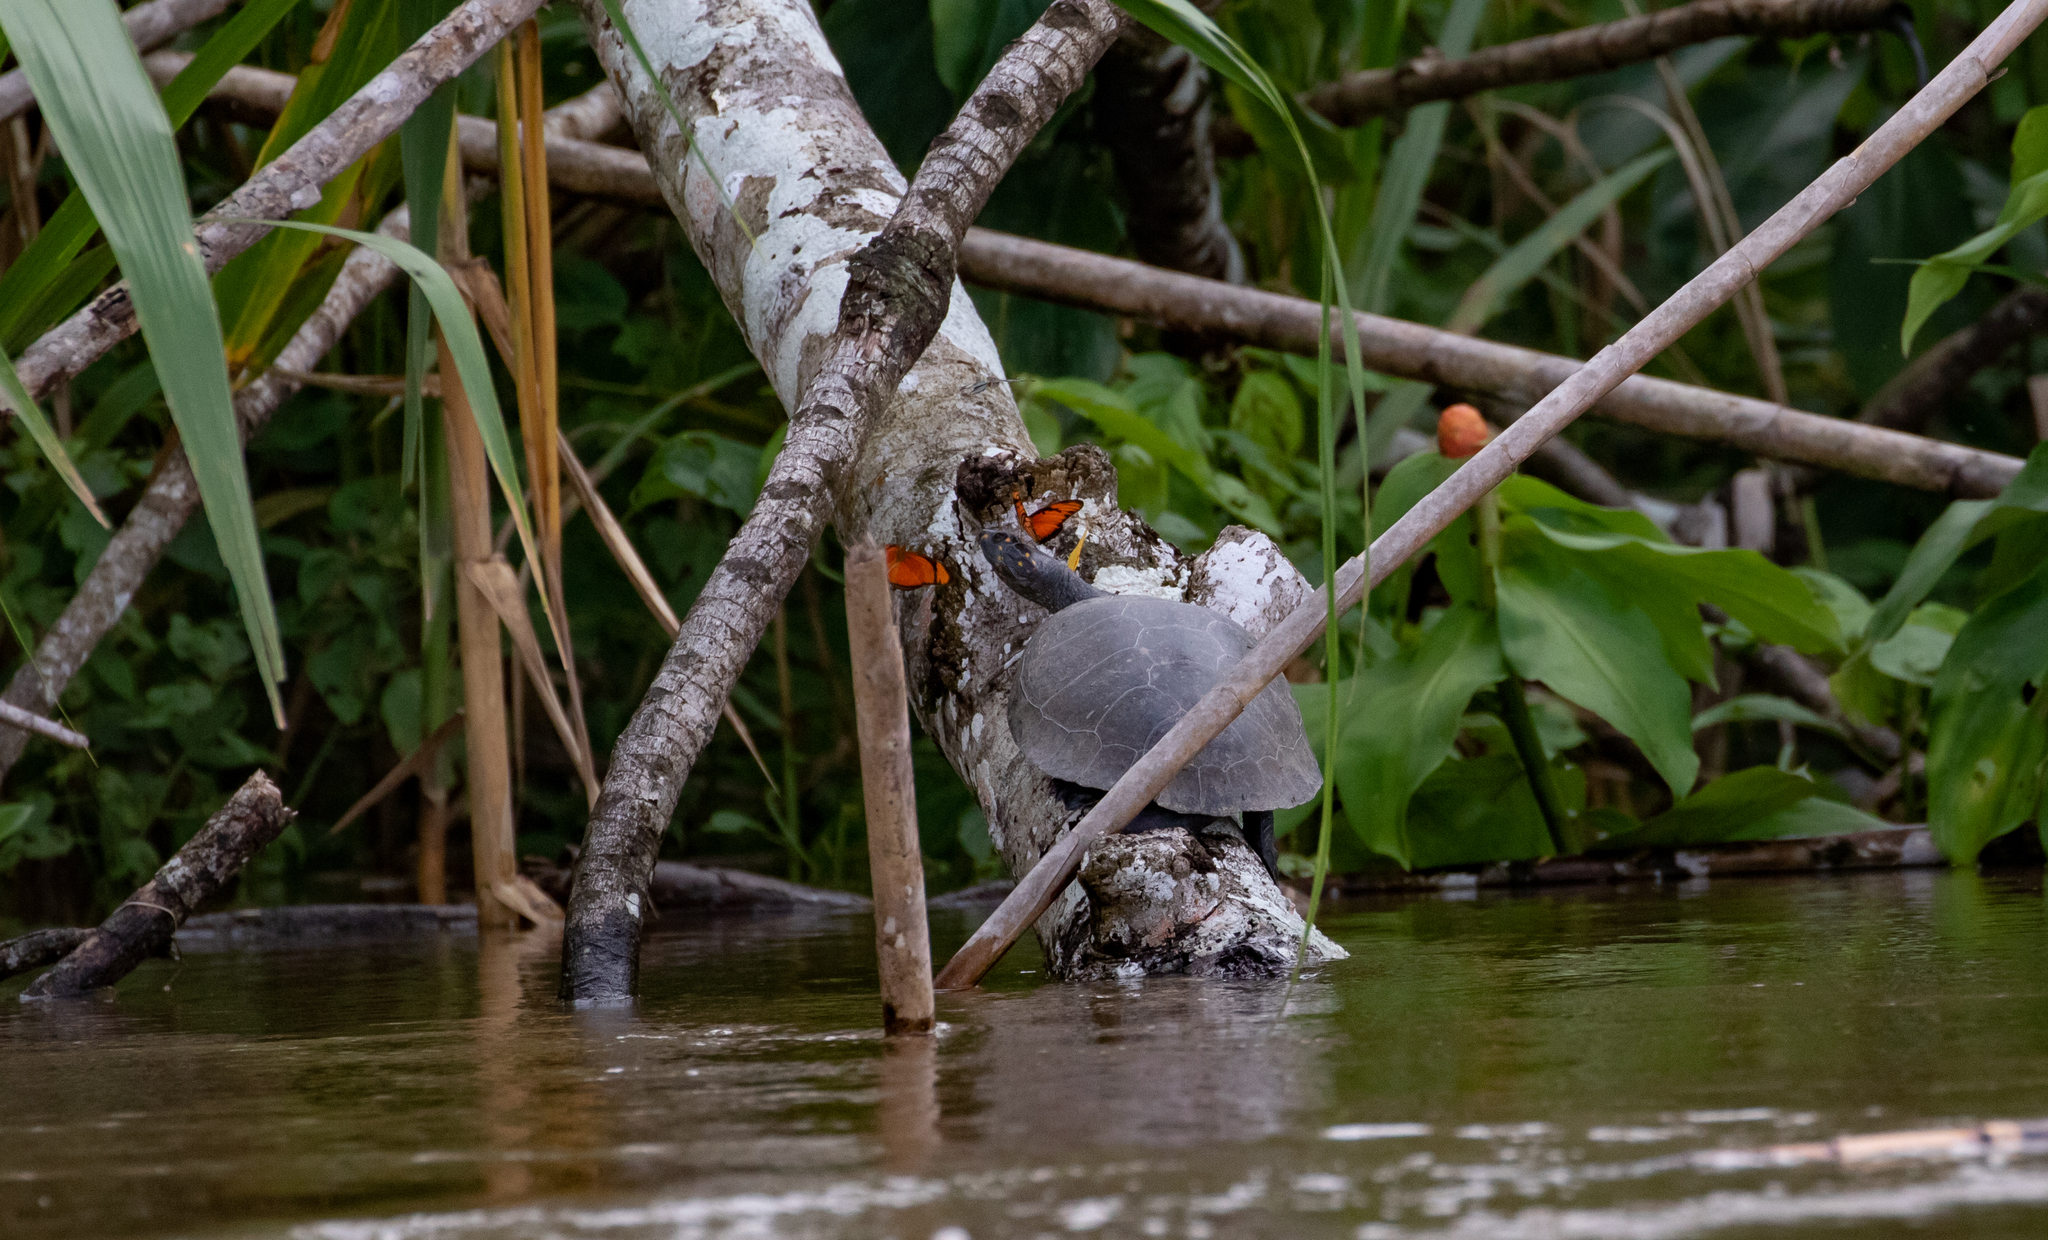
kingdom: Animalia
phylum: Chordata
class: Testudines
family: Podocnemididae
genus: Podocnemis
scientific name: Podocnemis unifilis
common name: Yellow-spotted amazon river turtle
